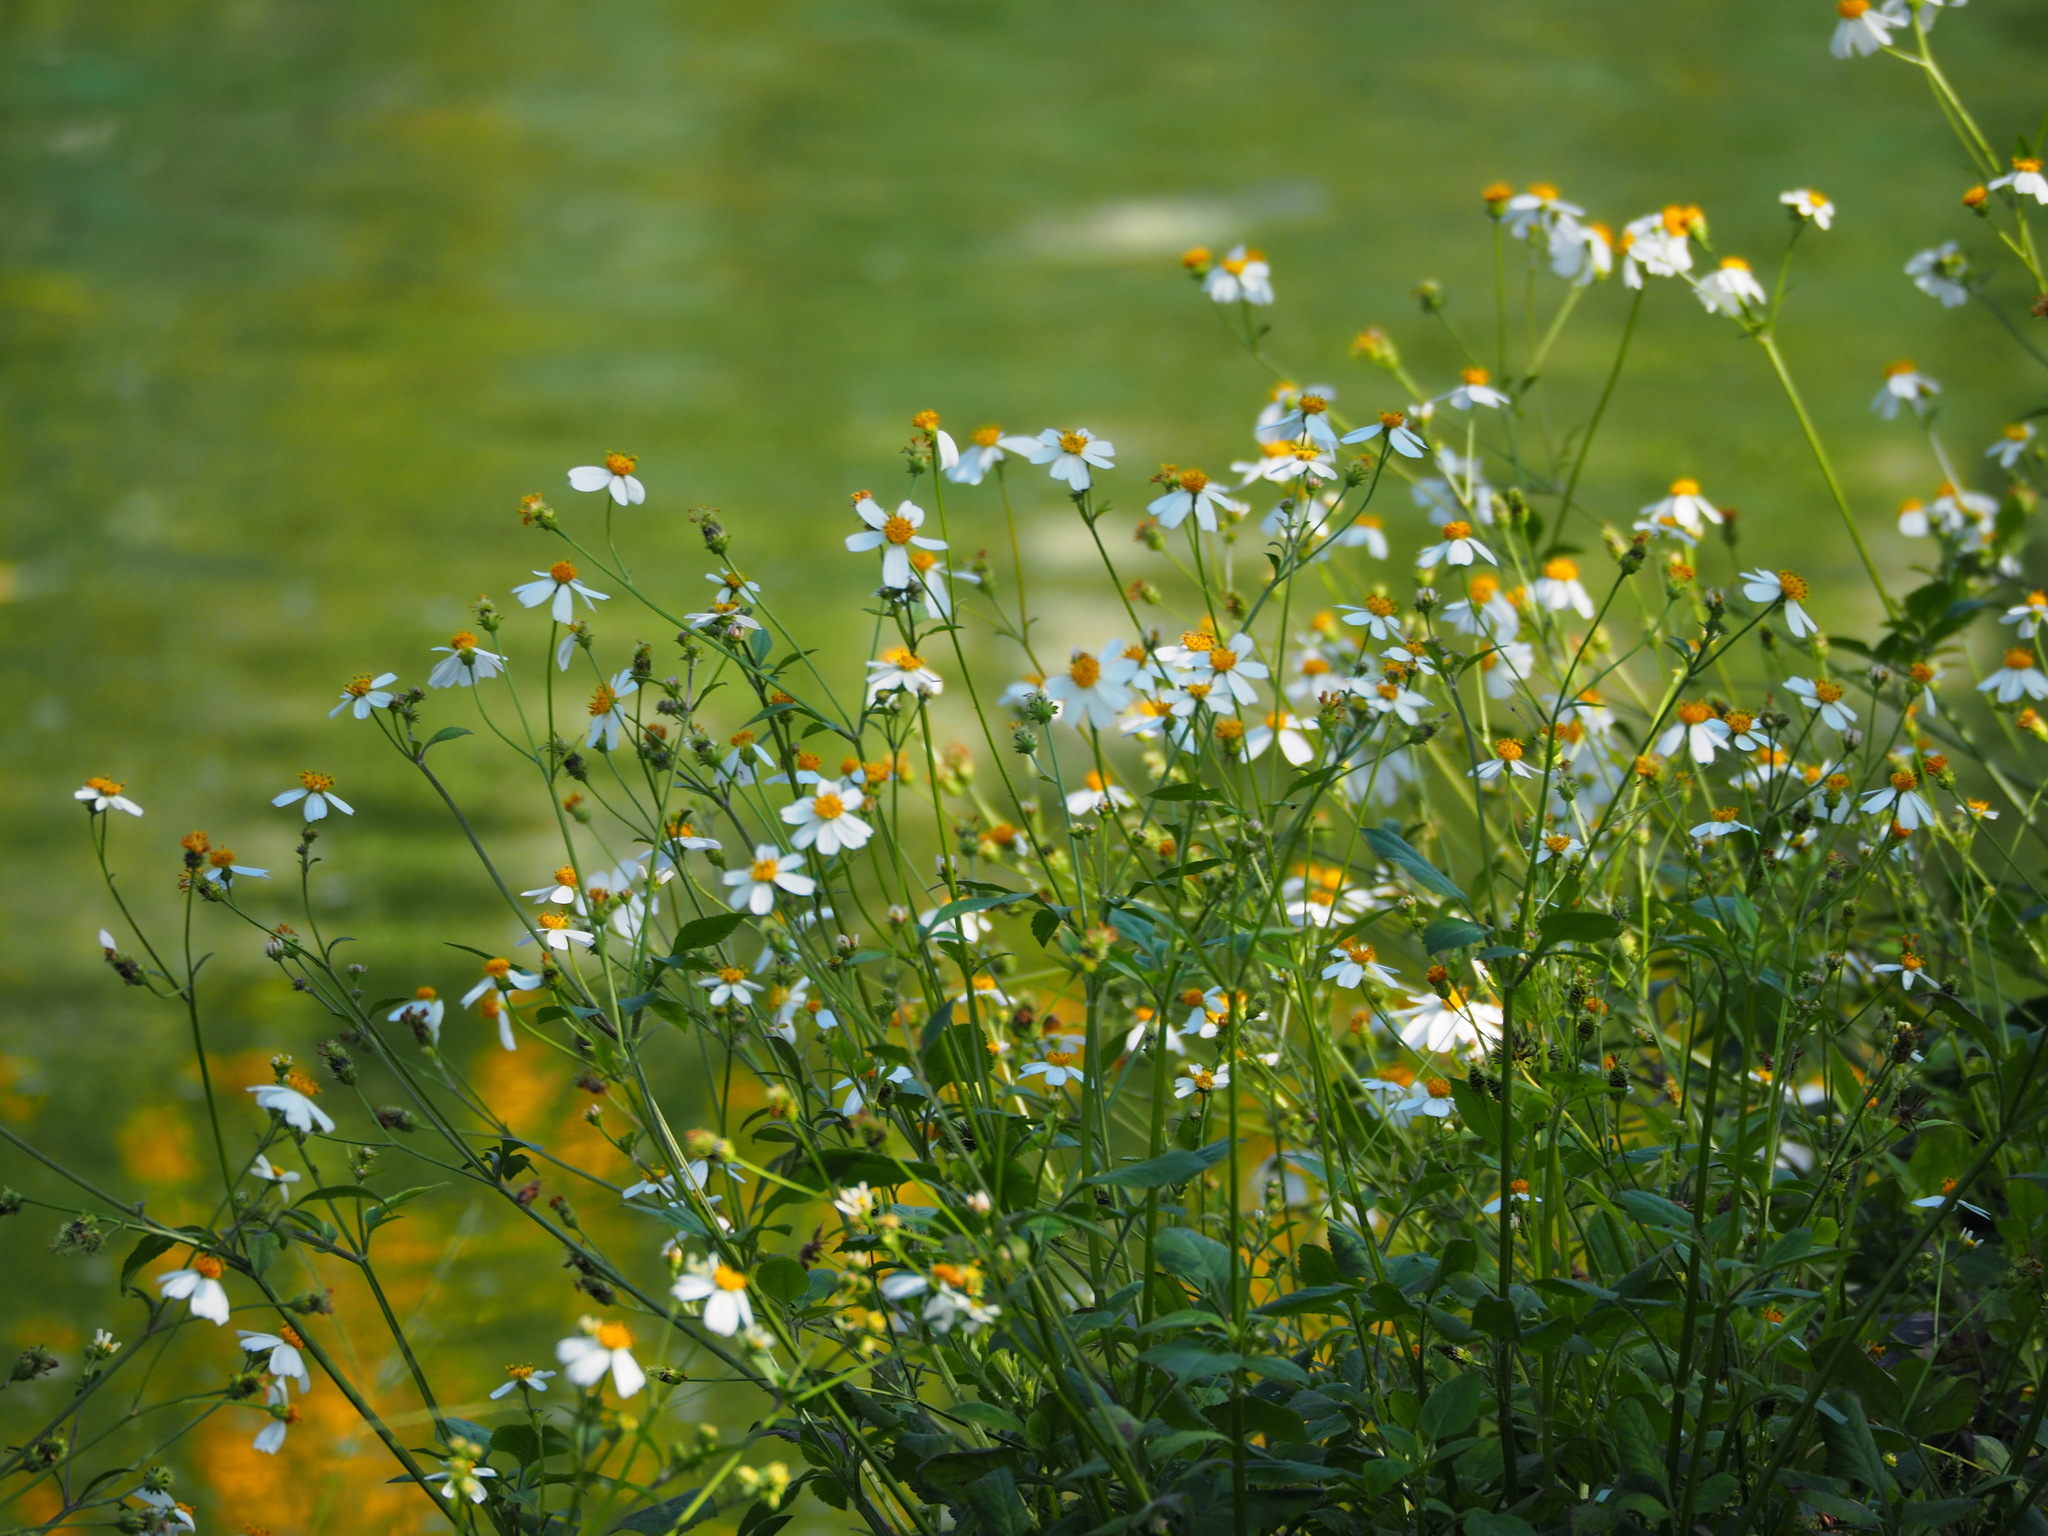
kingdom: Plantae
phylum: Tracheophyta
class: Magnoliopsida
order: Asterales
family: Asteraceae
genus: Bidens
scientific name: Bidens alba
